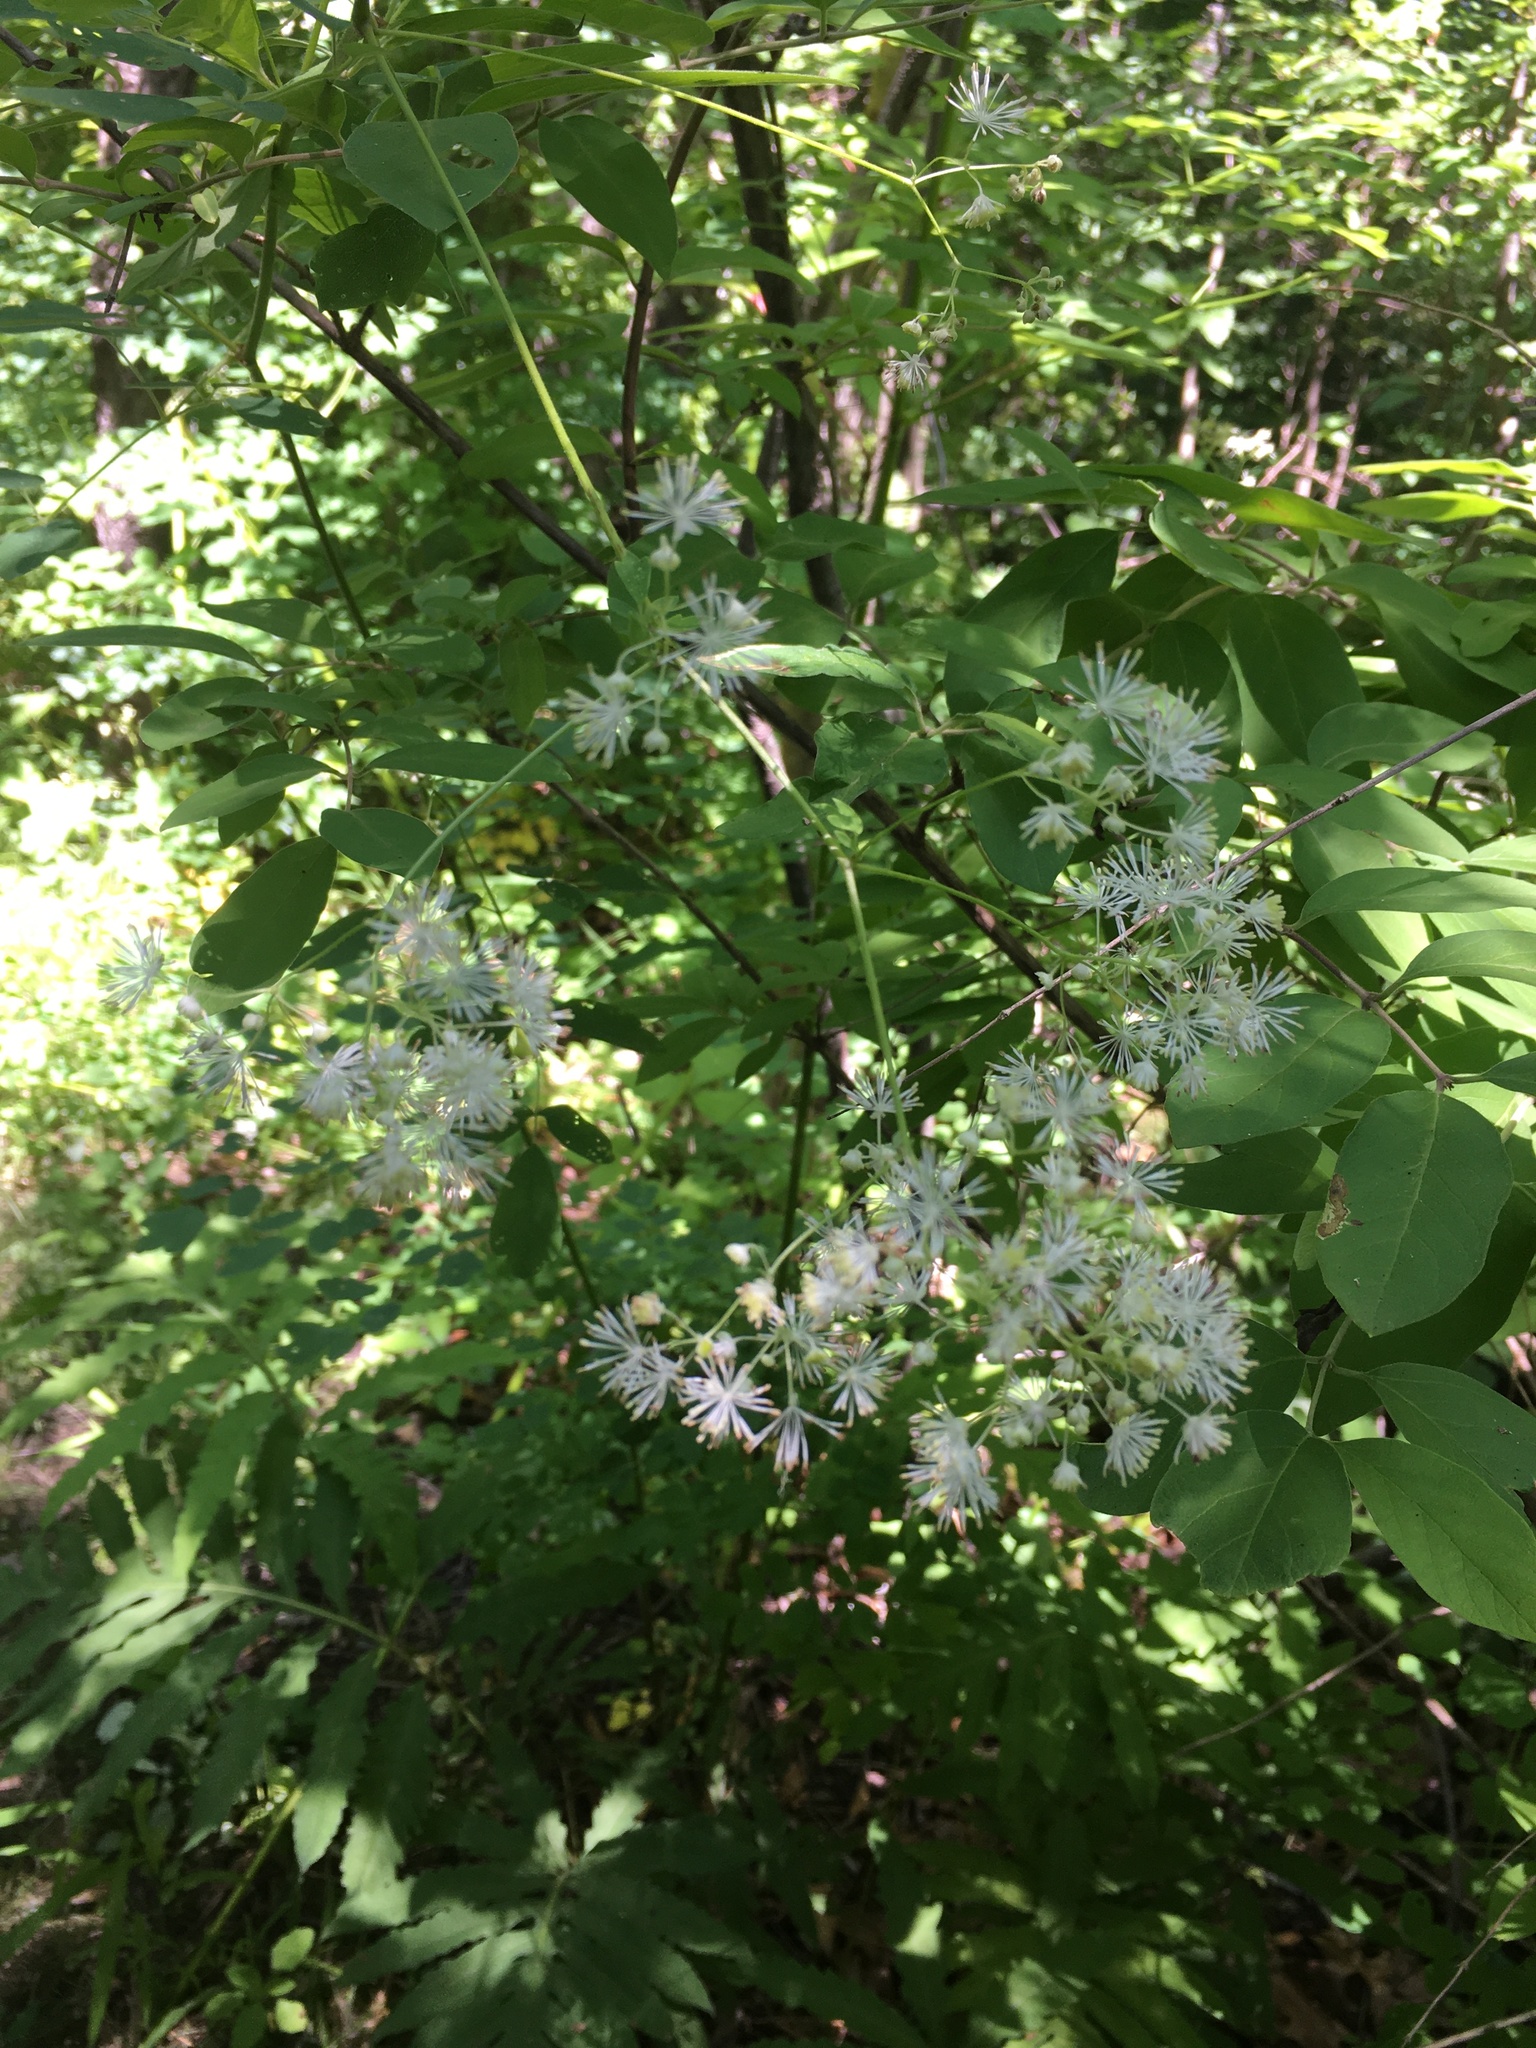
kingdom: Plantae
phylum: Tracheophyta
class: Magnoliopsida
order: Ranunculales
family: Ranunculaceae
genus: Thalictrum
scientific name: Thalictrum pubescens
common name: King-of-the-meadow
